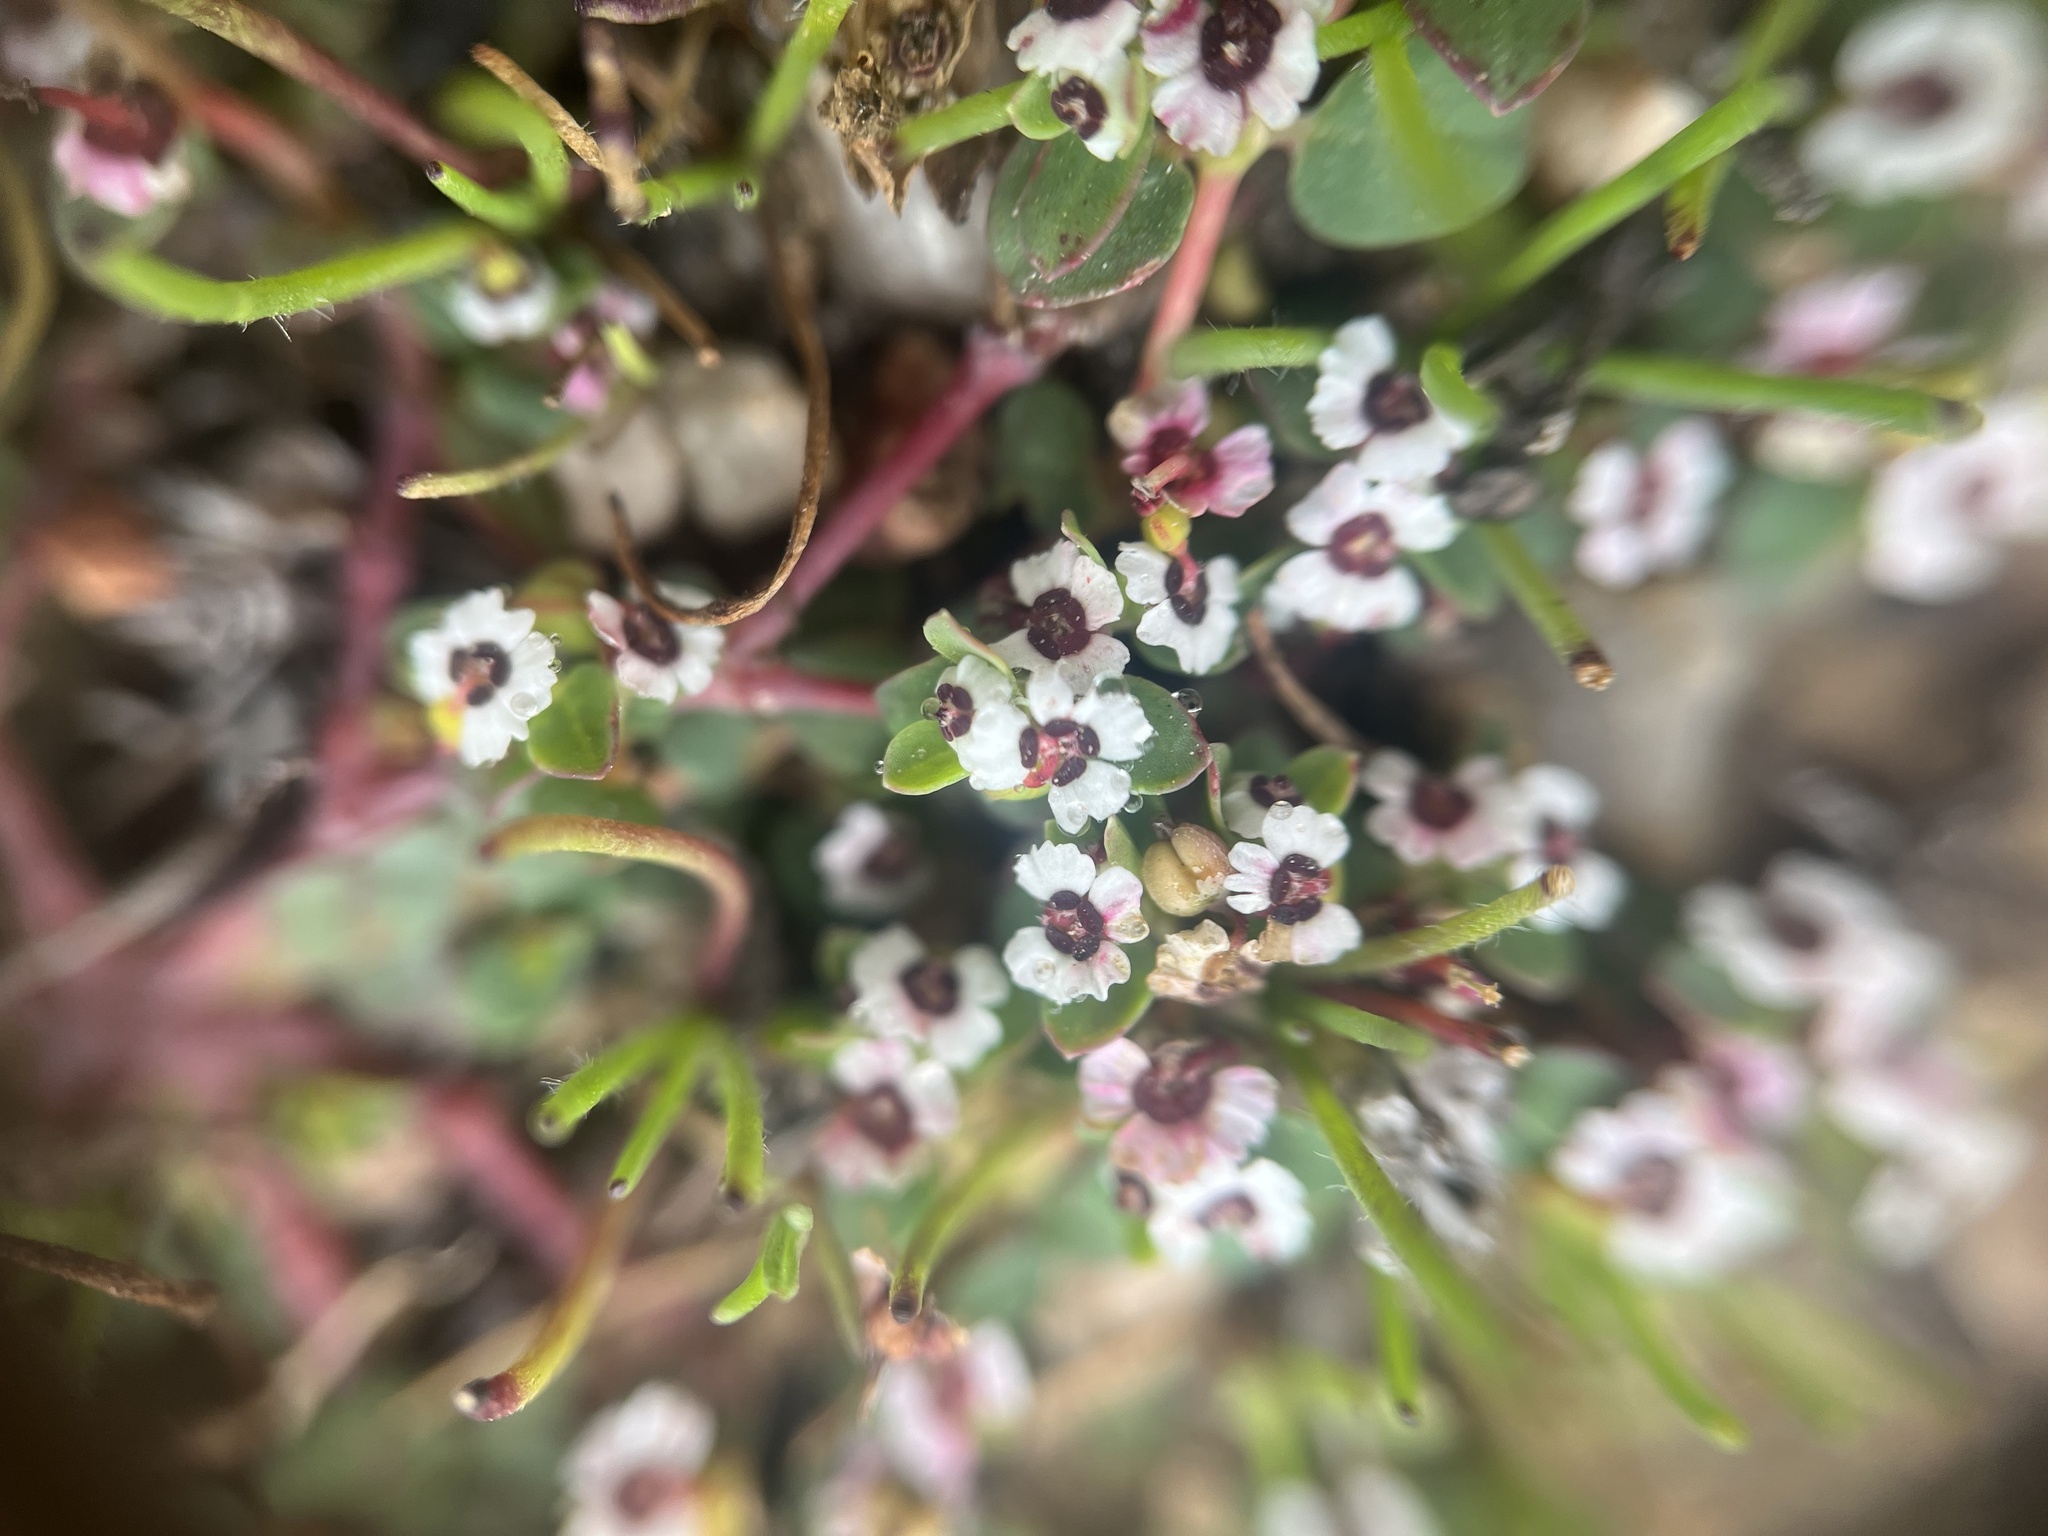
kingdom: Plantae
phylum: Tracheophyta
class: Magnoliopsida
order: Malpighiales
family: Euphorbiaceae
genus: Euphorbia
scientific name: Euphorbia polycarpa
